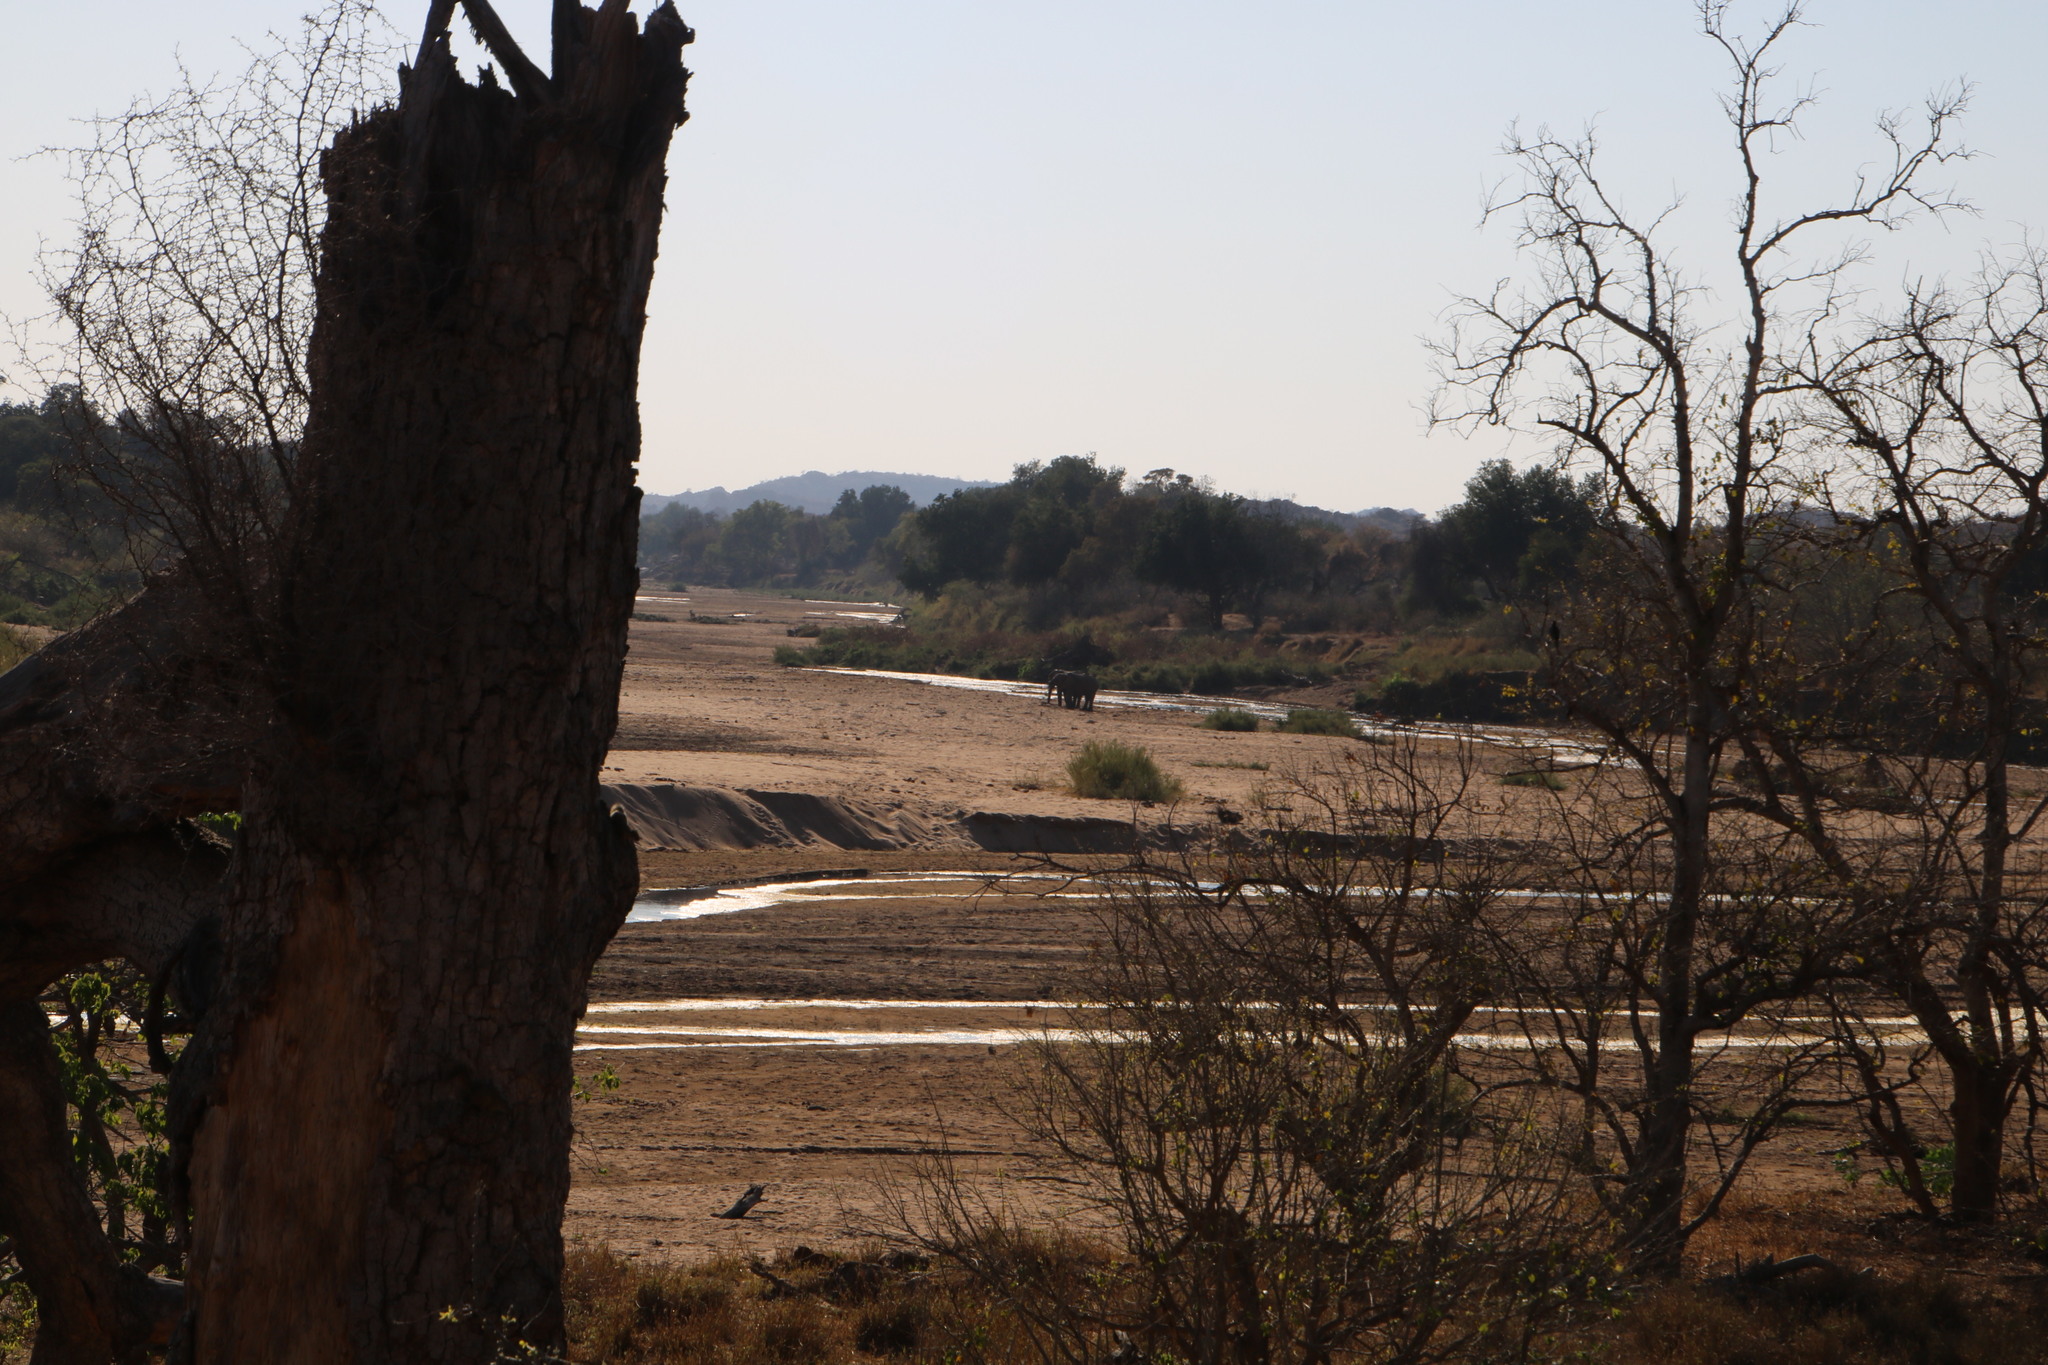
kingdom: Animalia
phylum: Chordata
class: Mammalia
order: Proboscidea
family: Elephantidae
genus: Loxodonta
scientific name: Loxodonta africana
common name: African elephant
